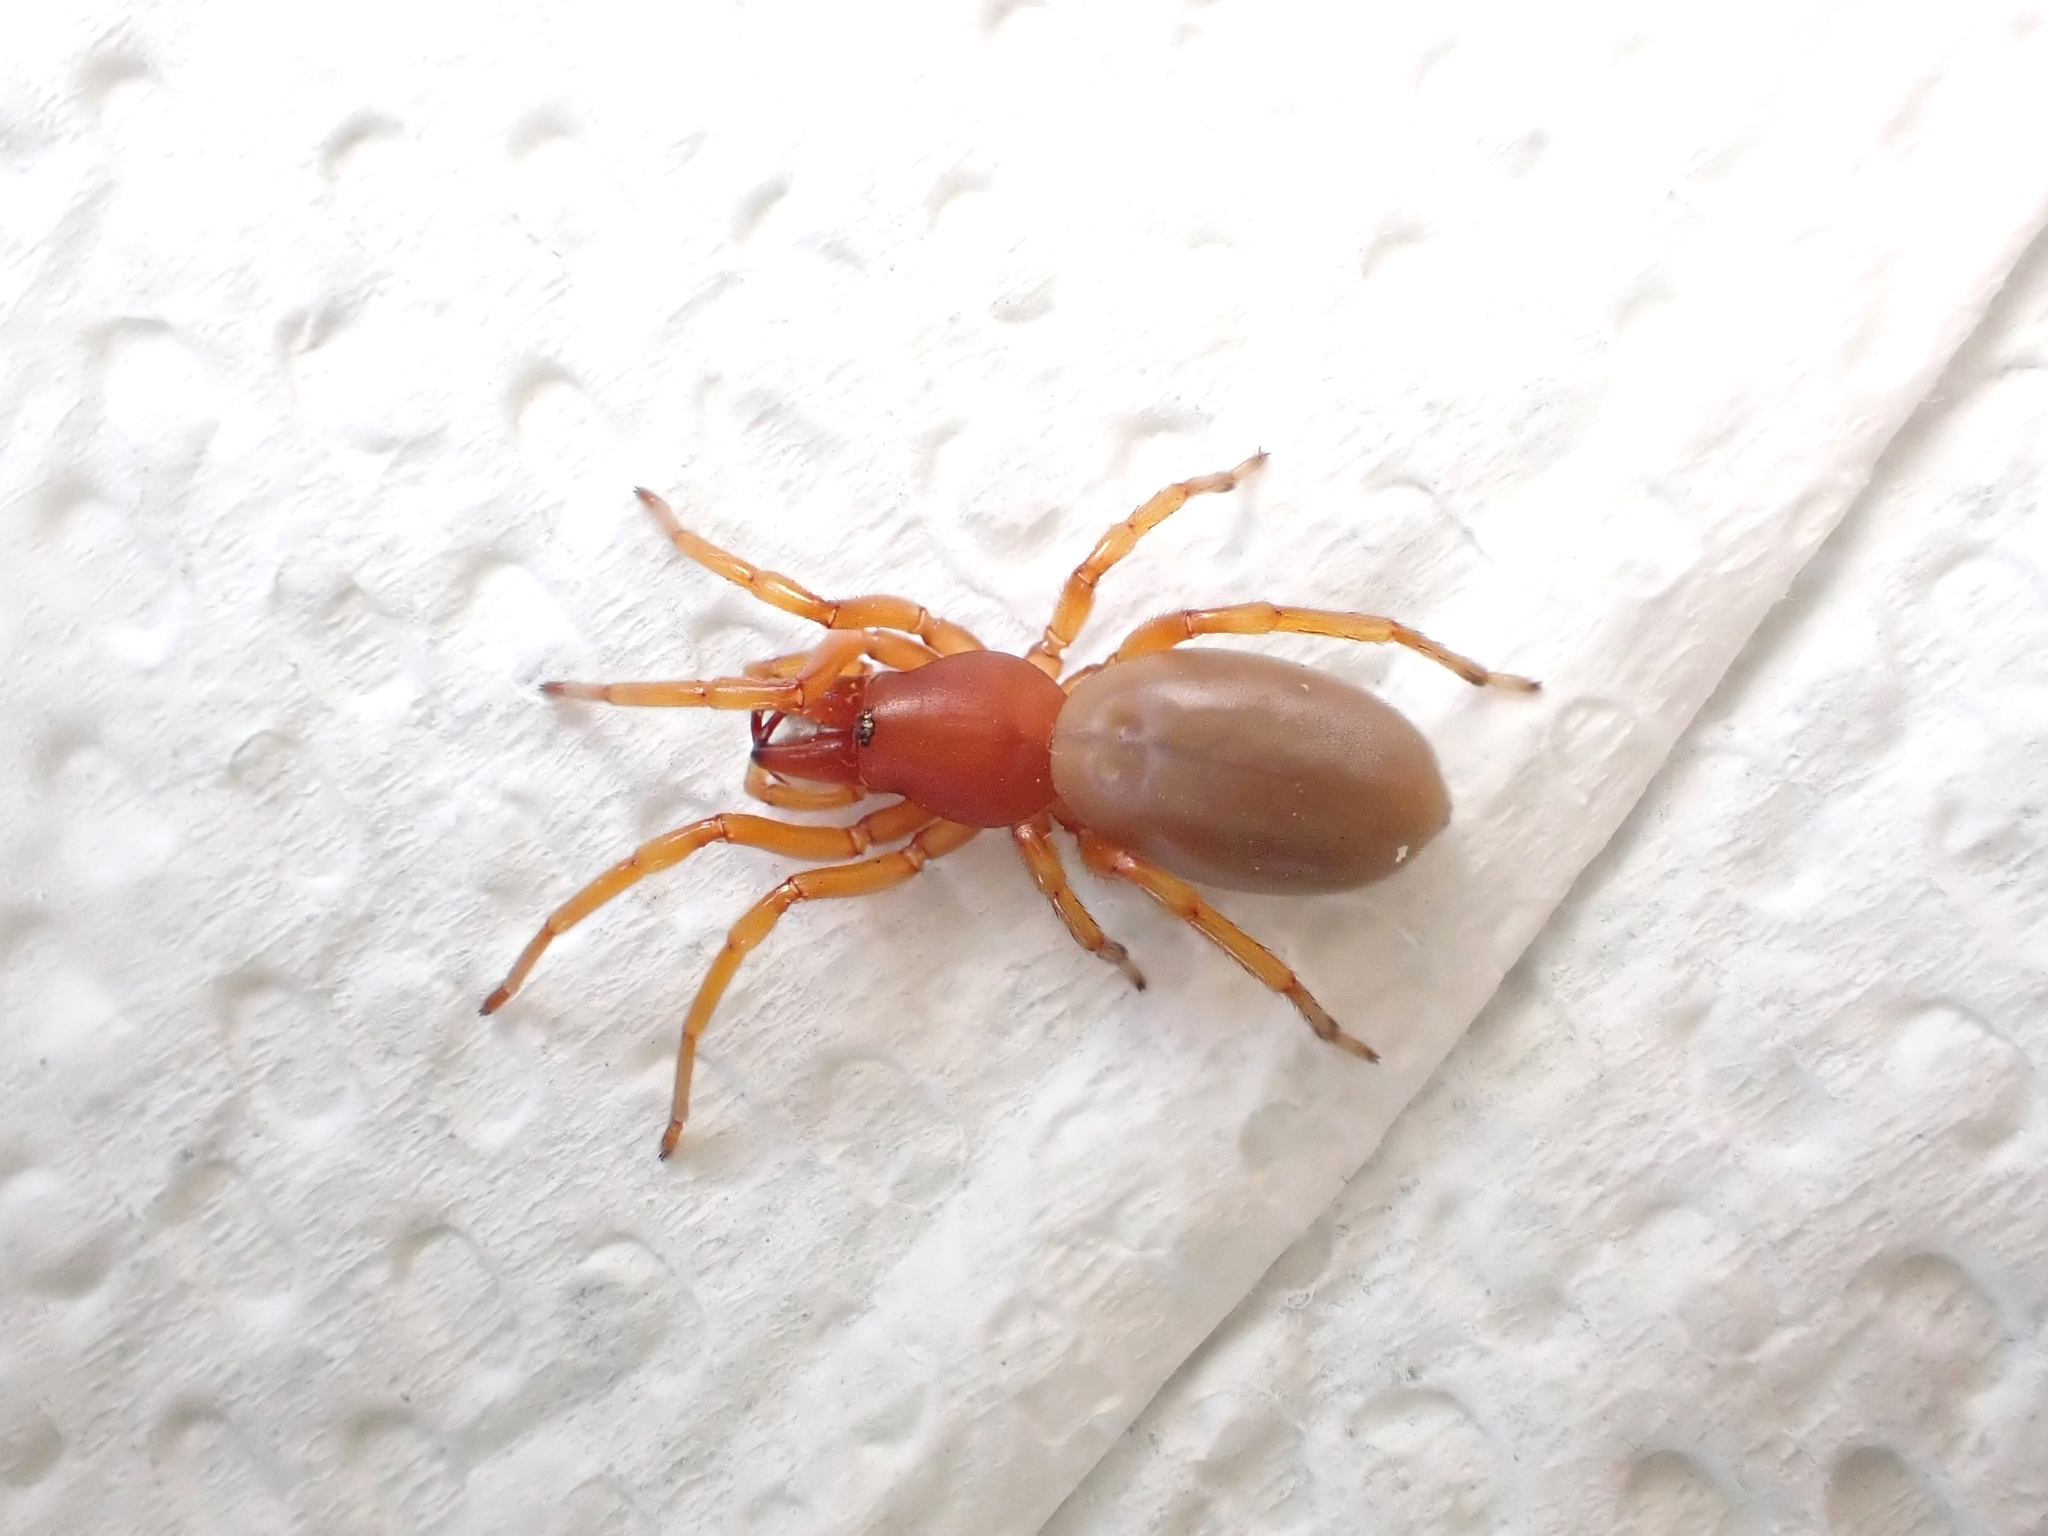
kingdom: Animalia
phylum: Arthropoda
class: Arachnida
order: Araneae
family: Dysderidae
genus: Dysdera
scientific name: Dysdera crocata
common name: Woodlouse spider
